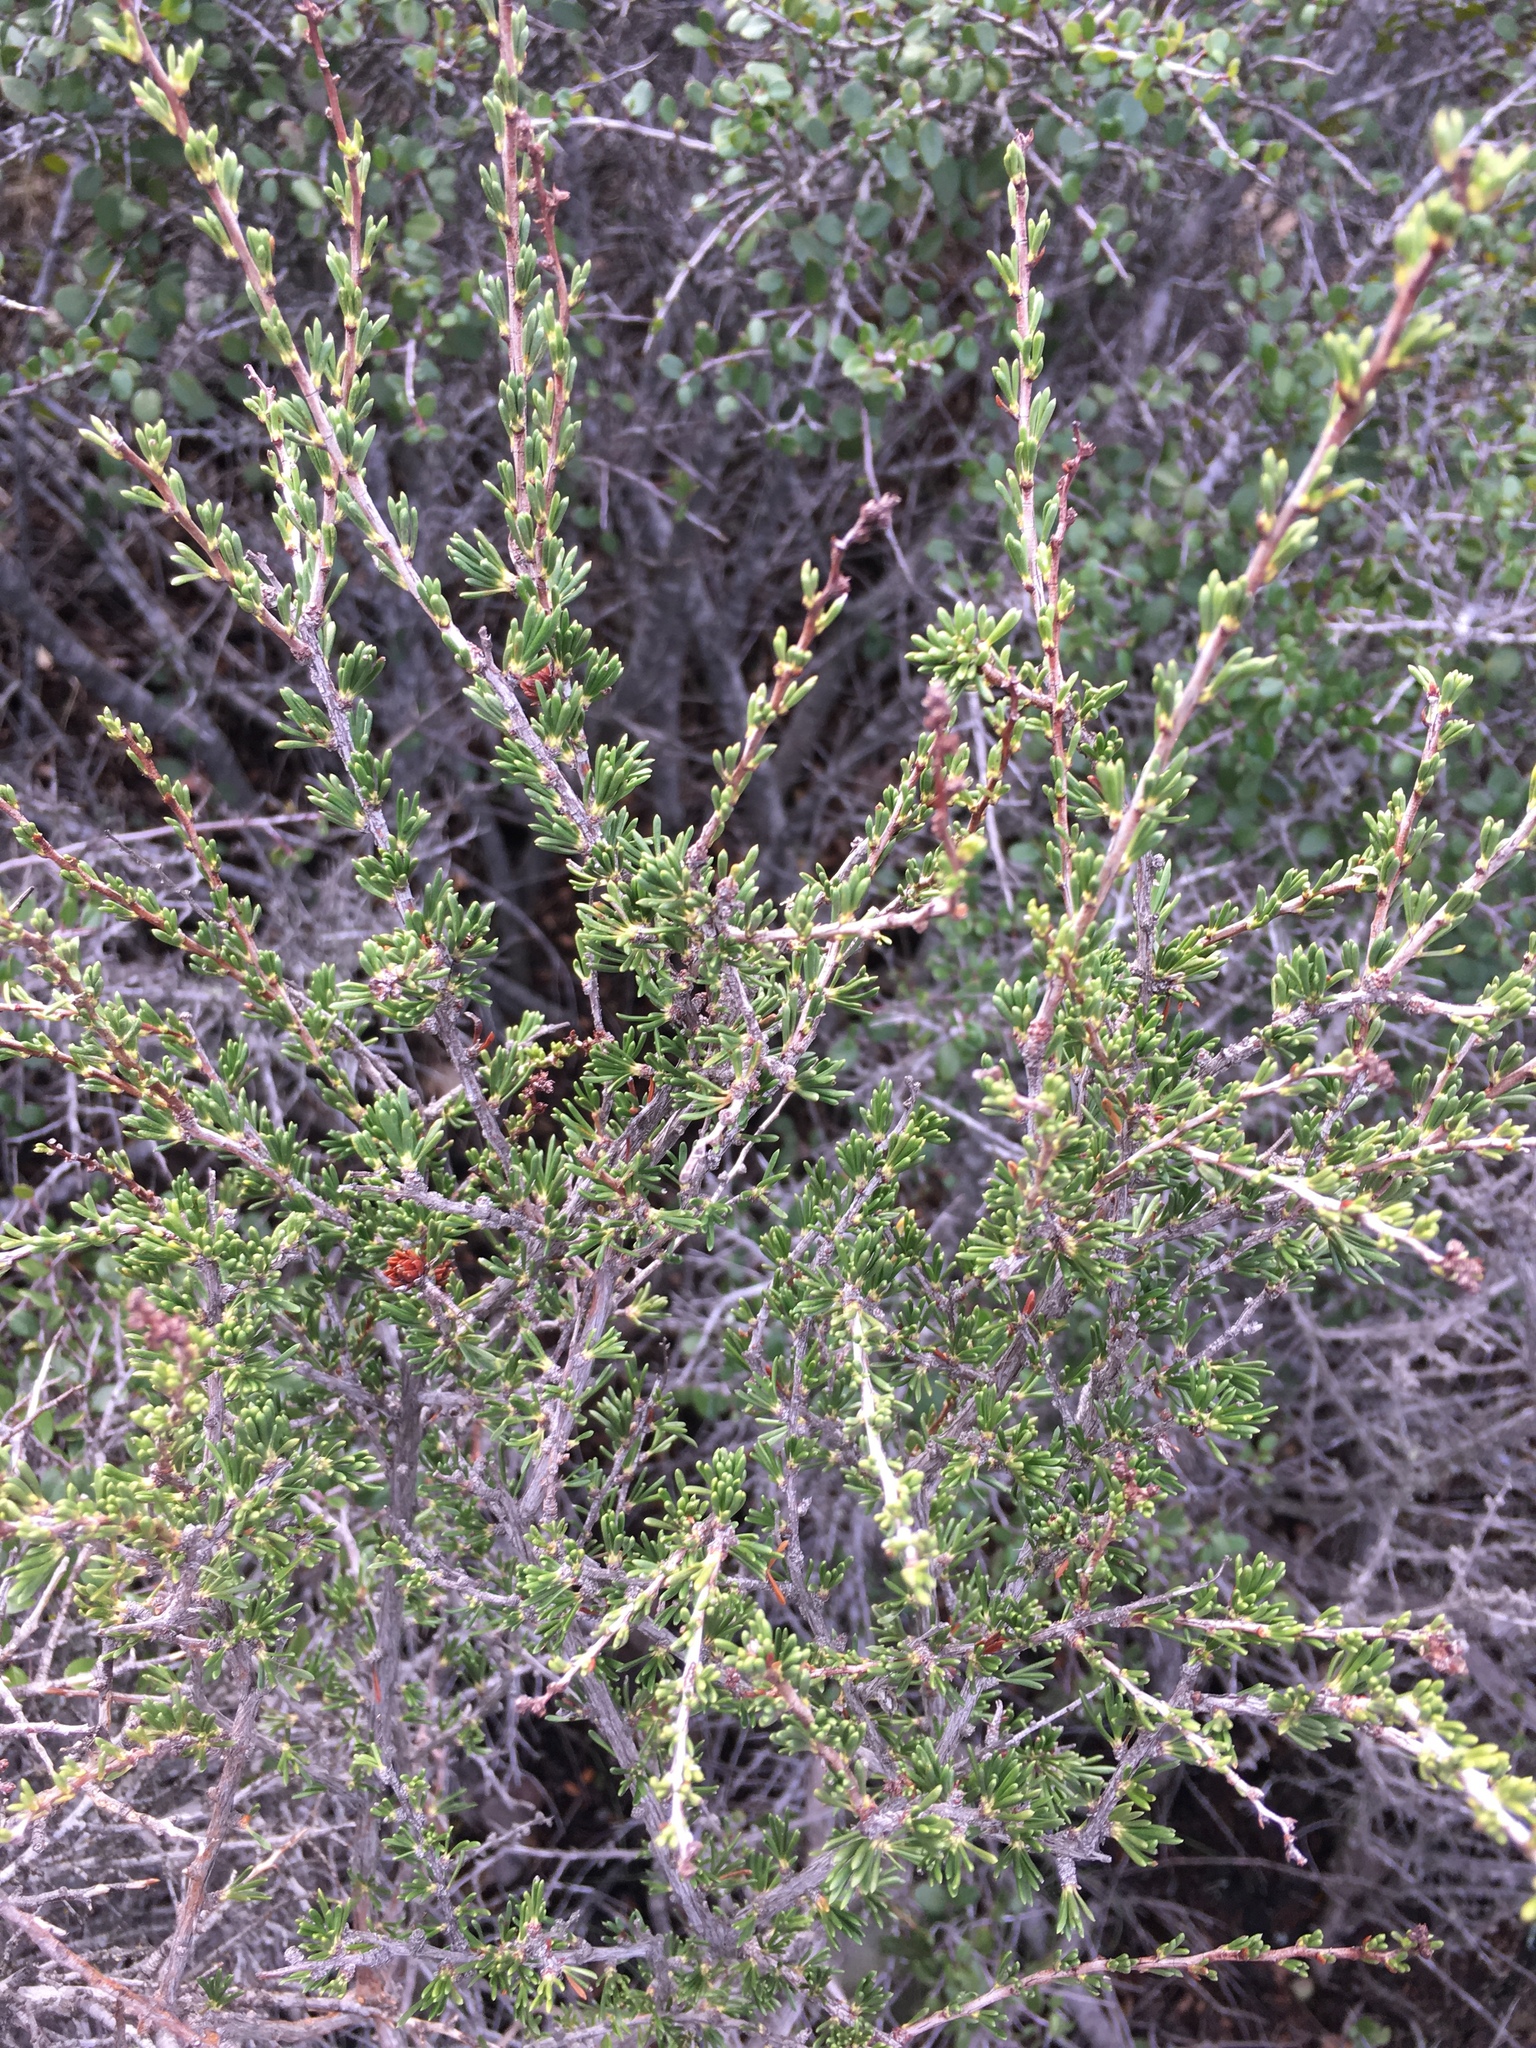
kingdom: Plantae
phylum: Tracheophyta
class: Magnoliopsida
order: Rosales
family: Rosaceae
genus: Adenostoma
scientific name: Adenostoma fasciculatum
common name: Chamise
